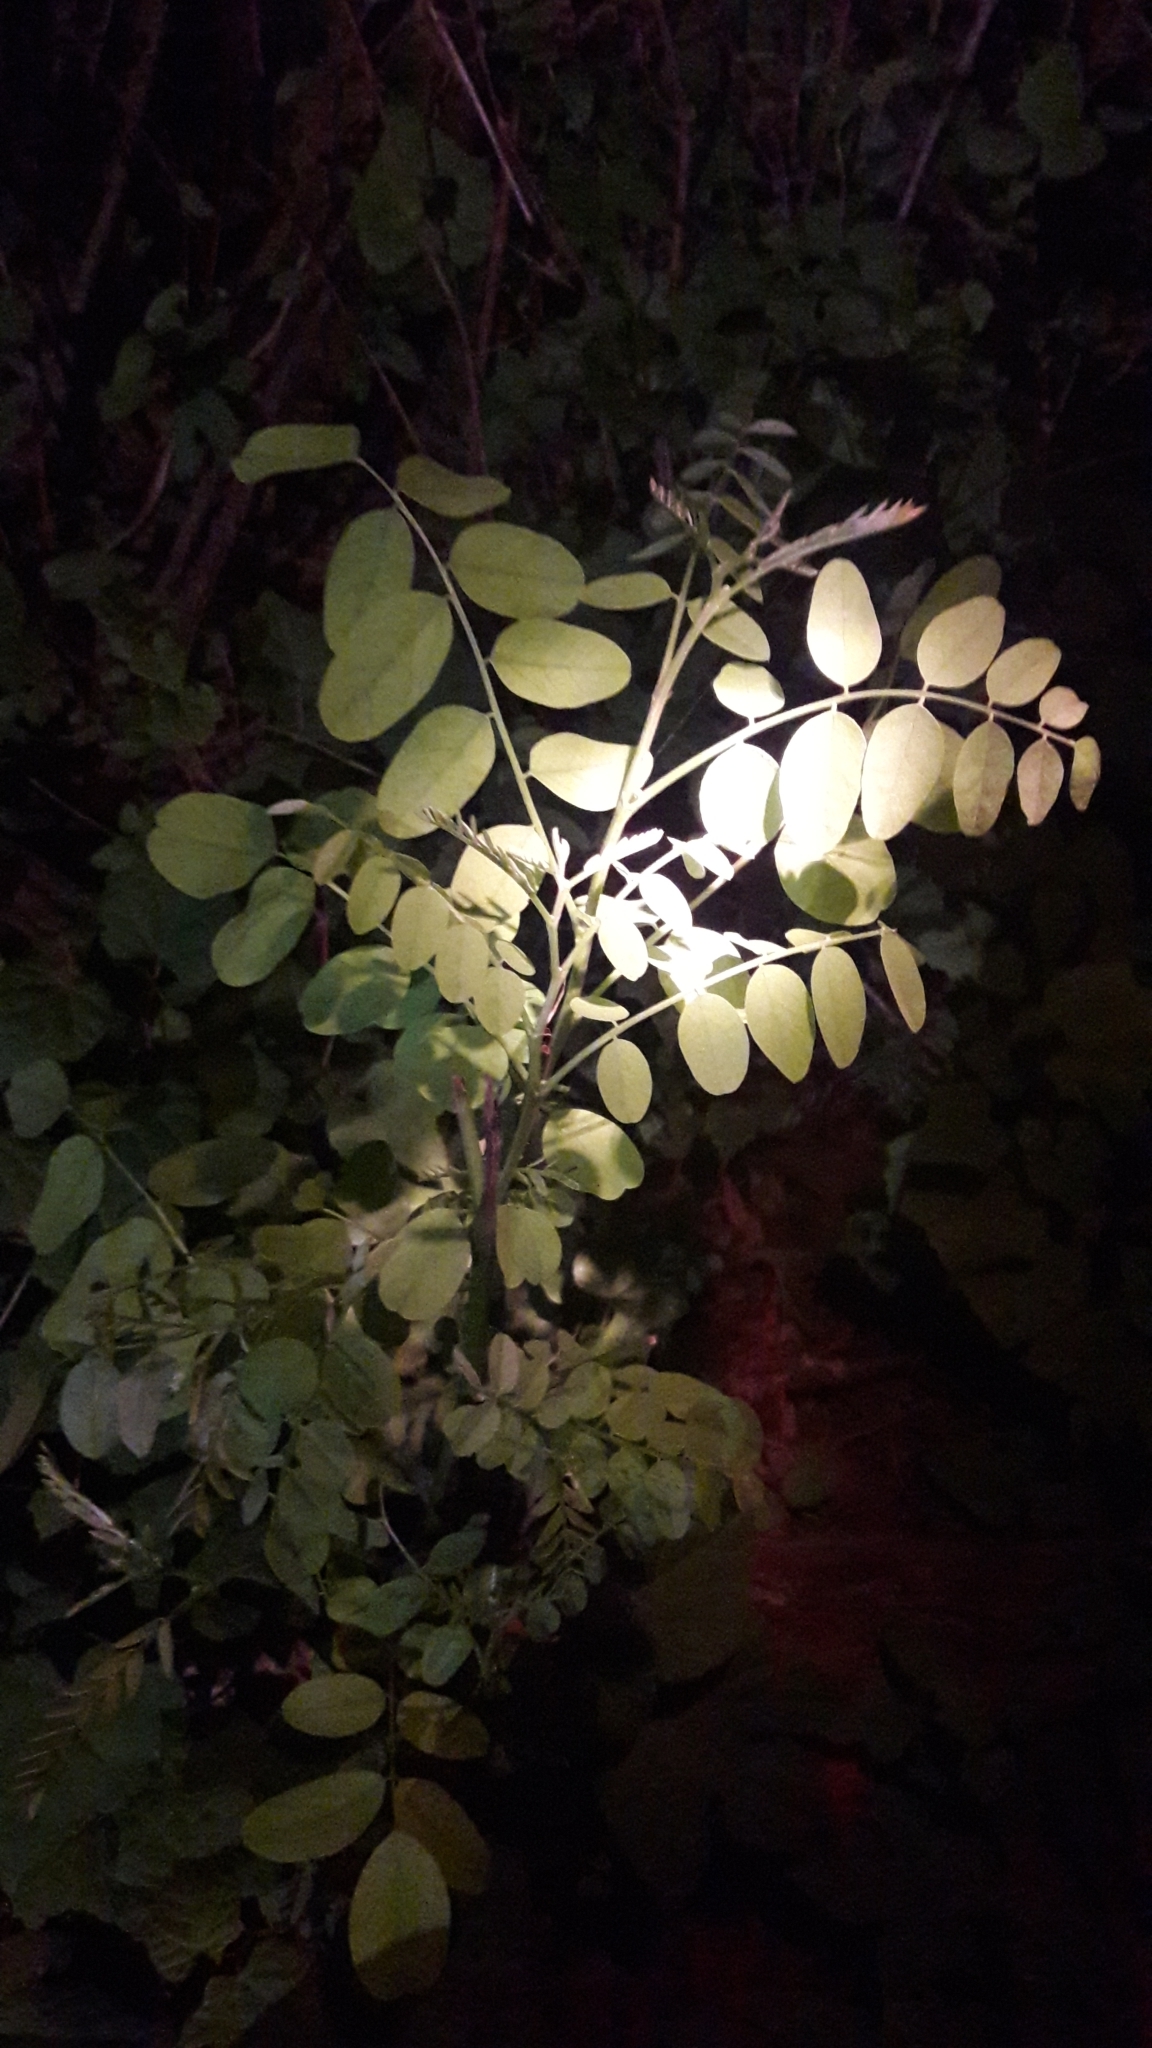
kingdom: Plantae
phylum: Tracheophyta
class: Magnoliopsida
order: Fabales
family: Fabaceae
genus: Robinia
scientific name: Robinia pseudoacacia
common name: Black locust
